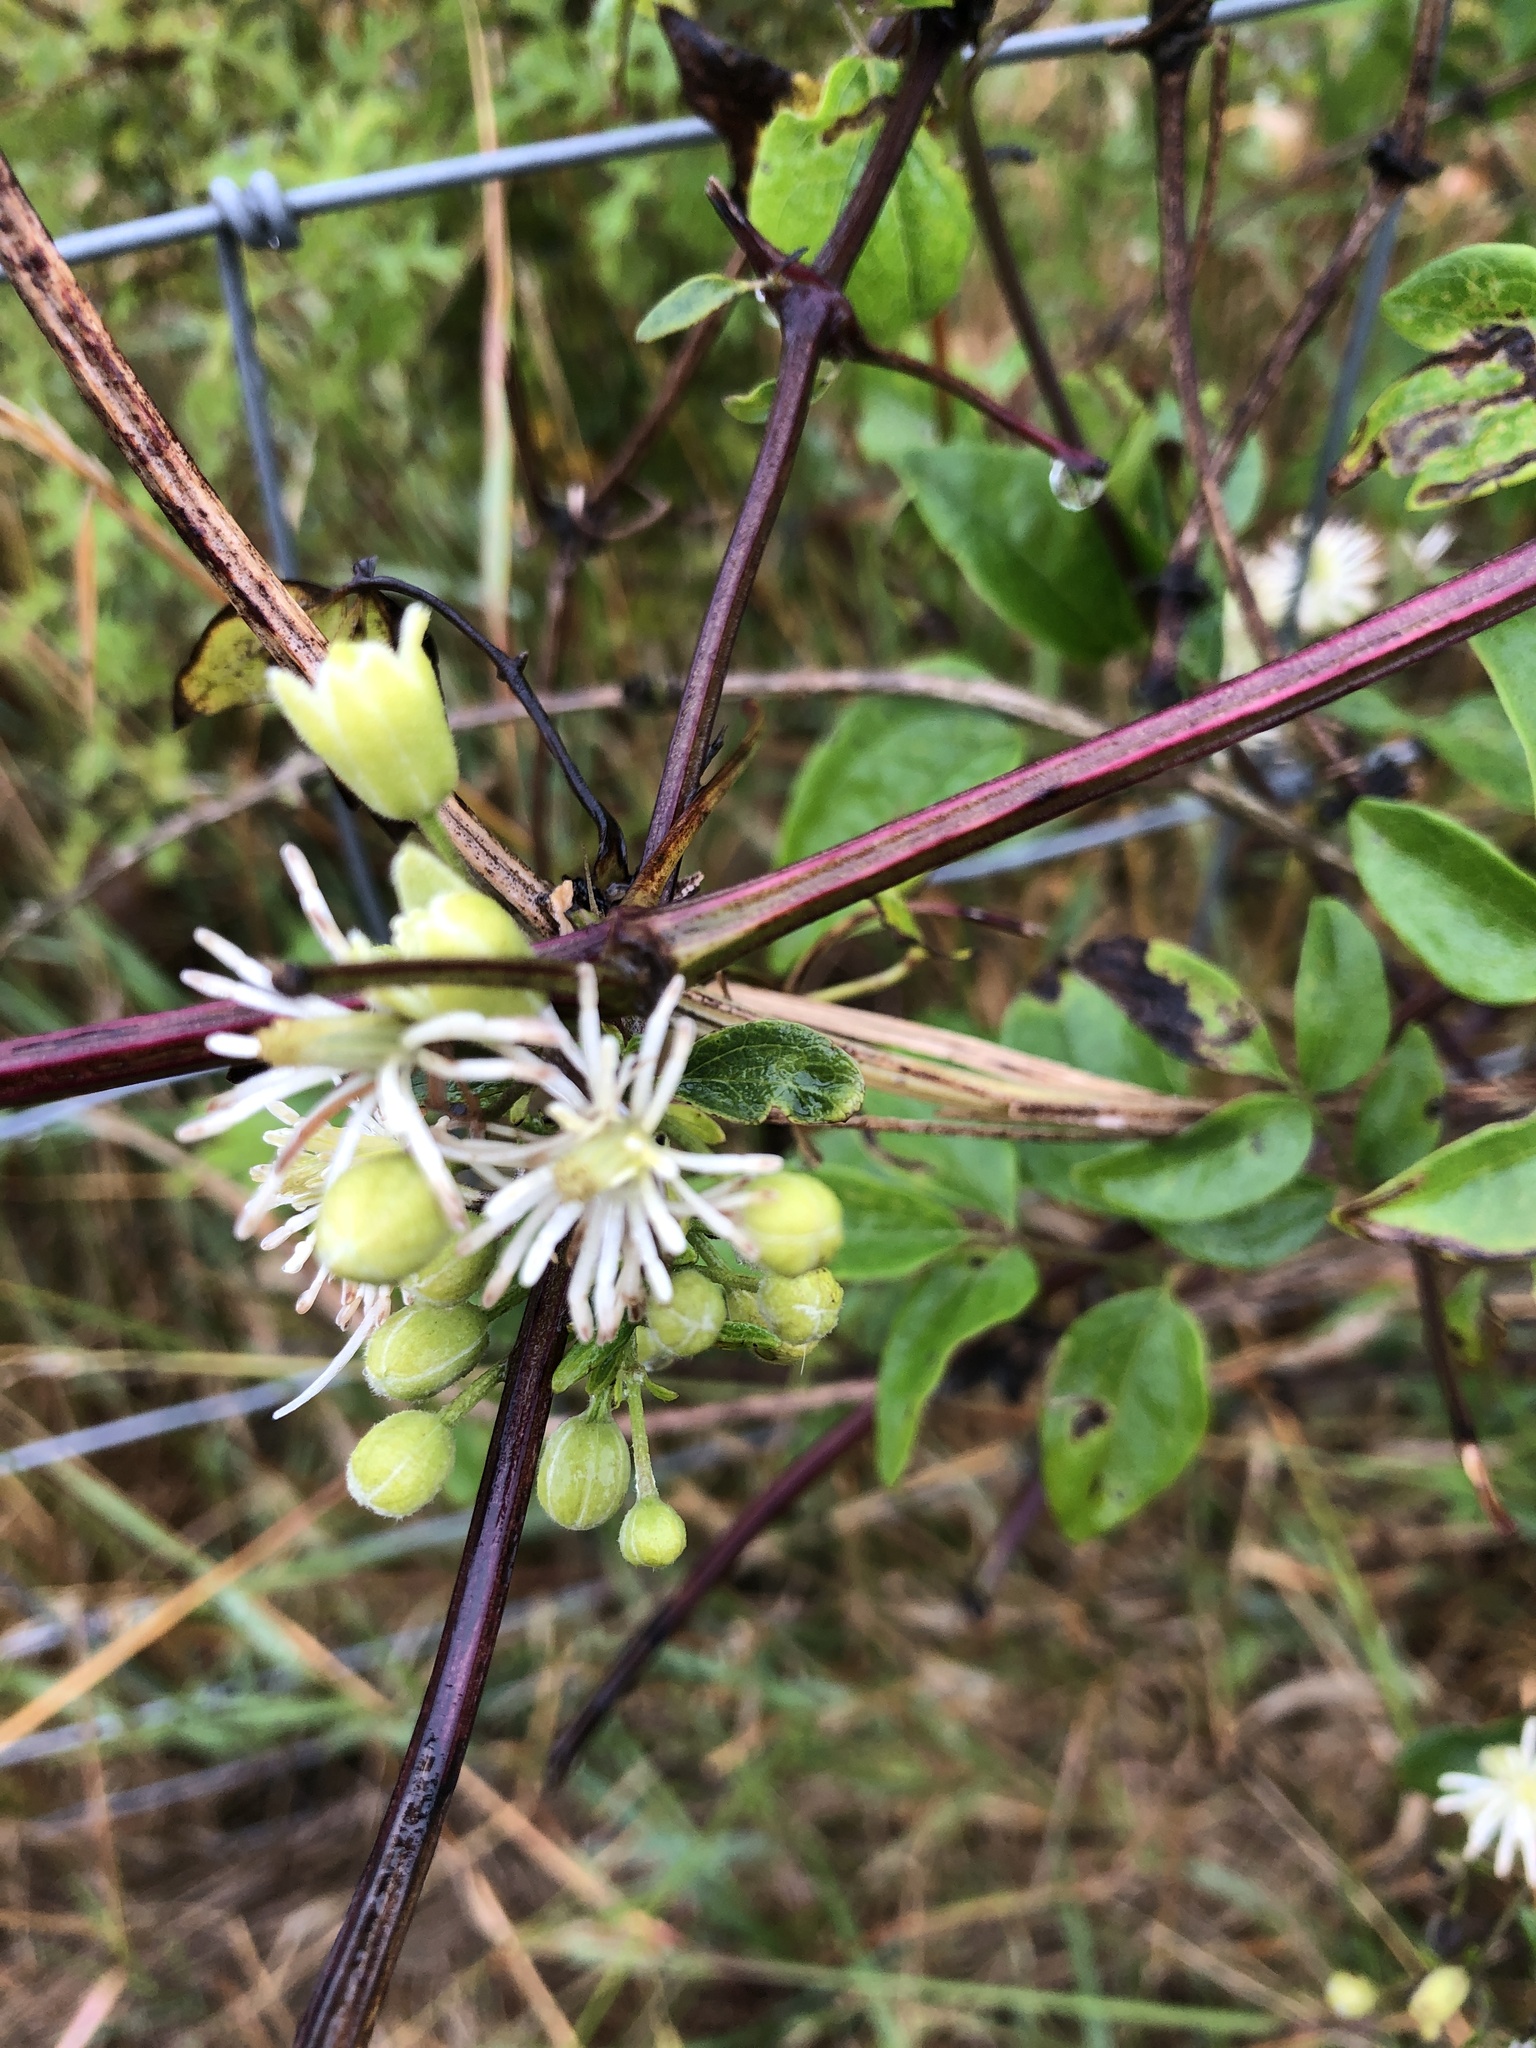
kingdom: Plantae
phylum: Tracheophyta
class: Magnoliopsida
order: Ranunculales
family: Ranunculaceae
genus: Clematis
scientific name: Clematis vitalba
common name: Evergreen clematis
